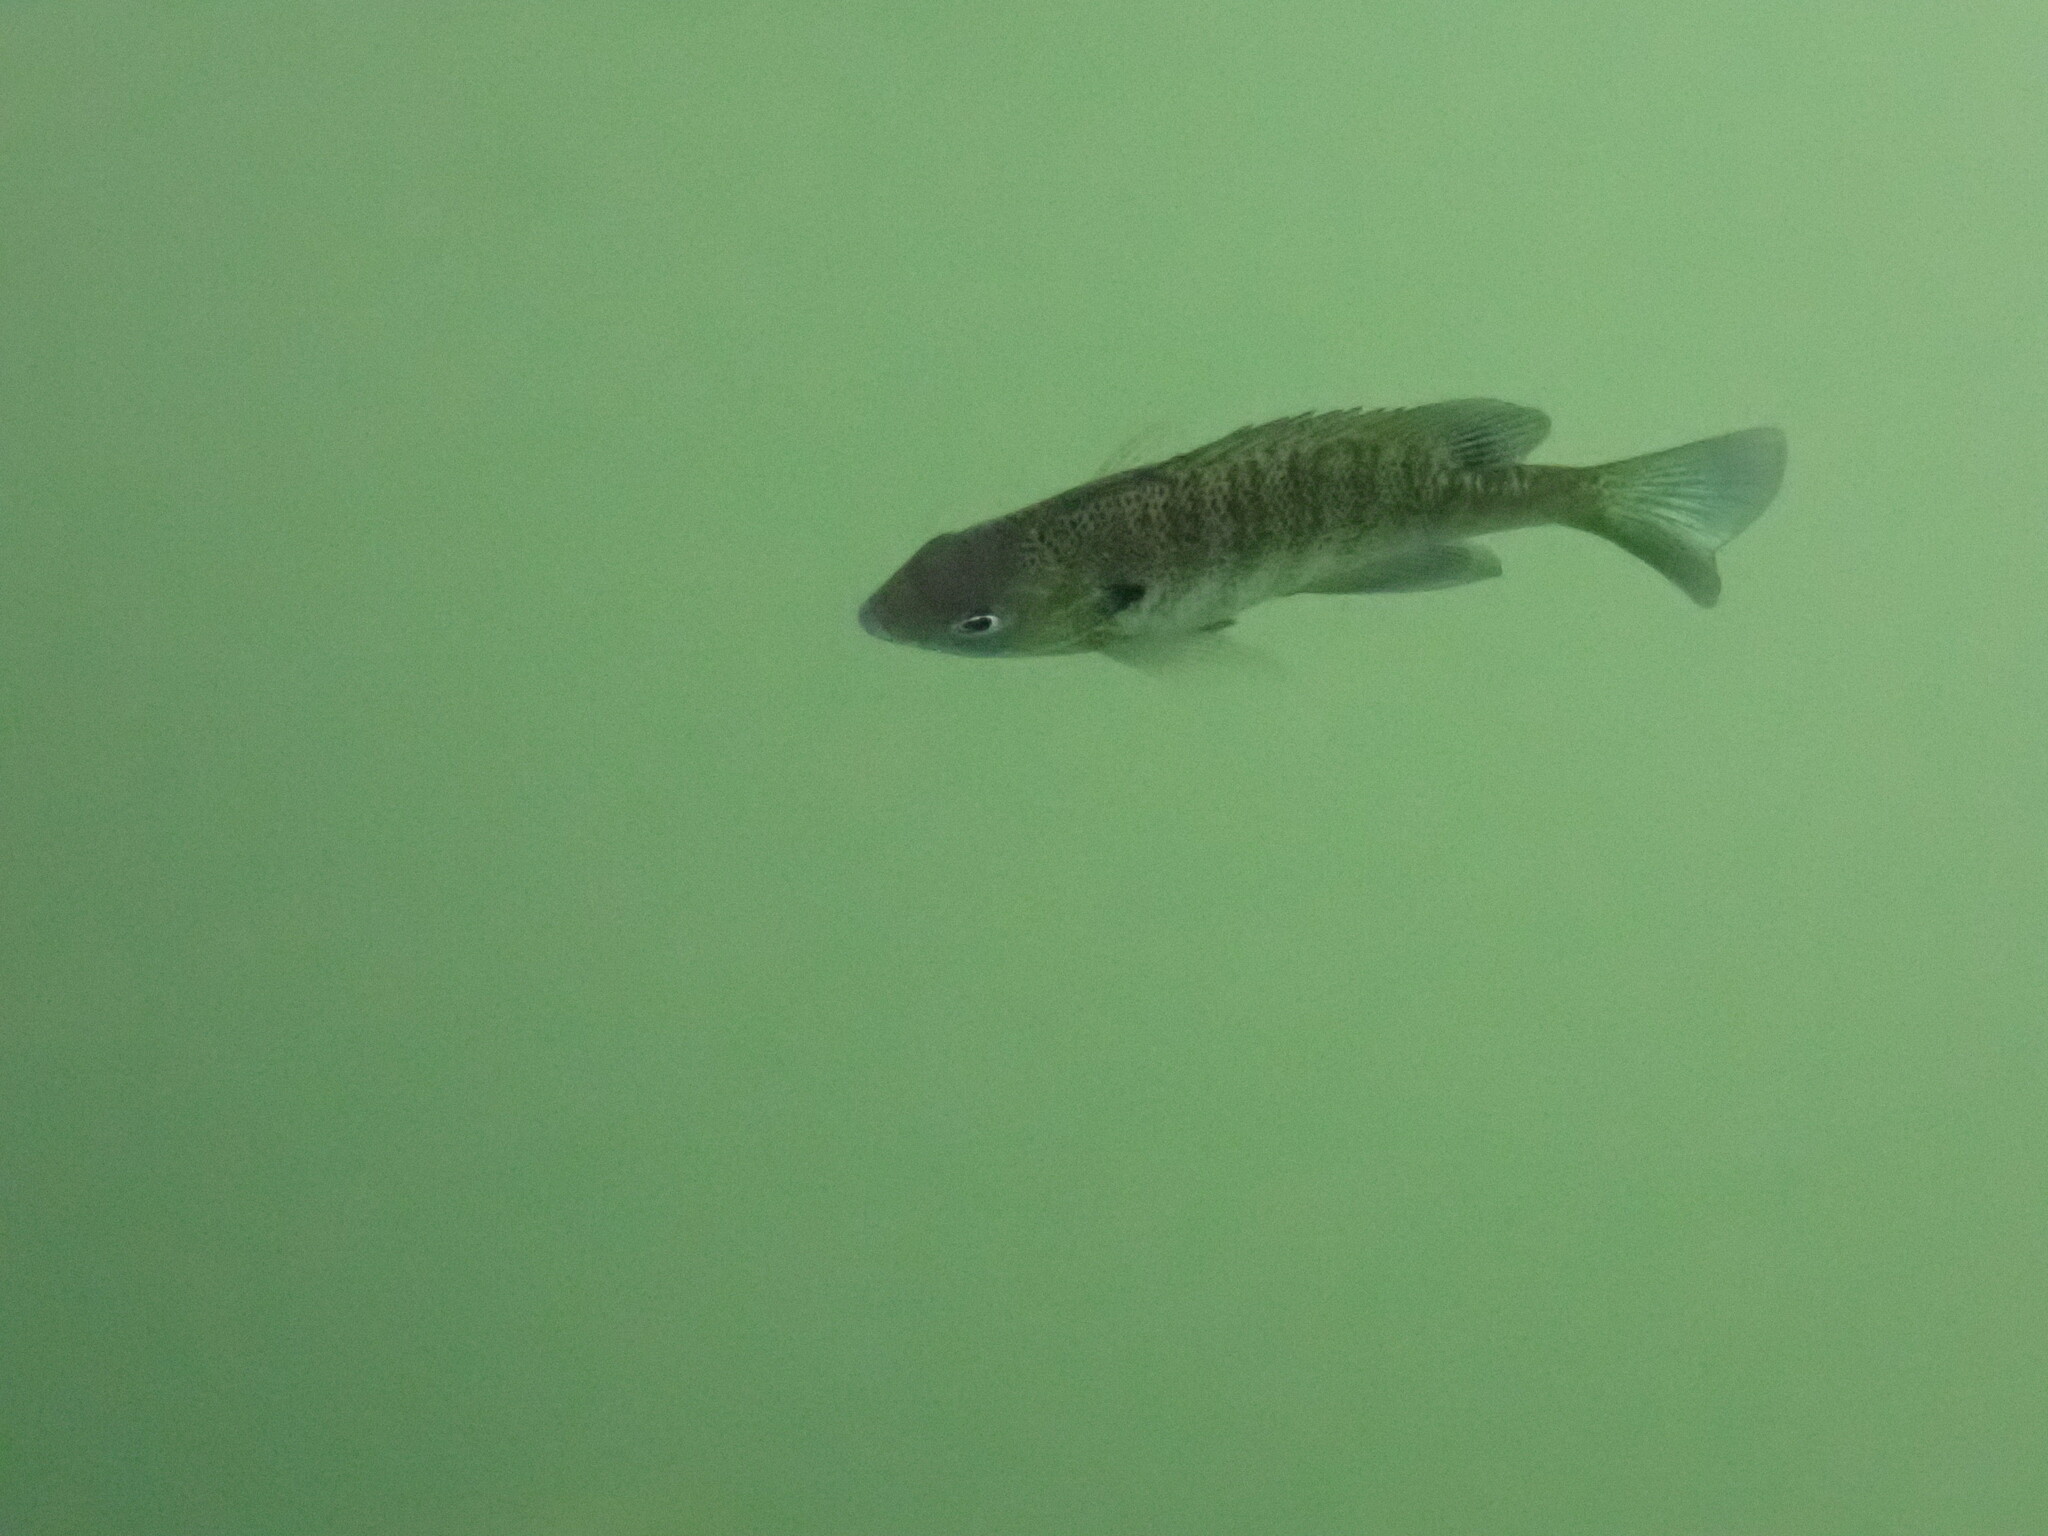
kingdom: Animalia
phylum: Chordata
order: Perciformes
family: Centrarchidae
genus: Lepomis
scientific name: Lepomis macrochirus
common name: Bluegill
